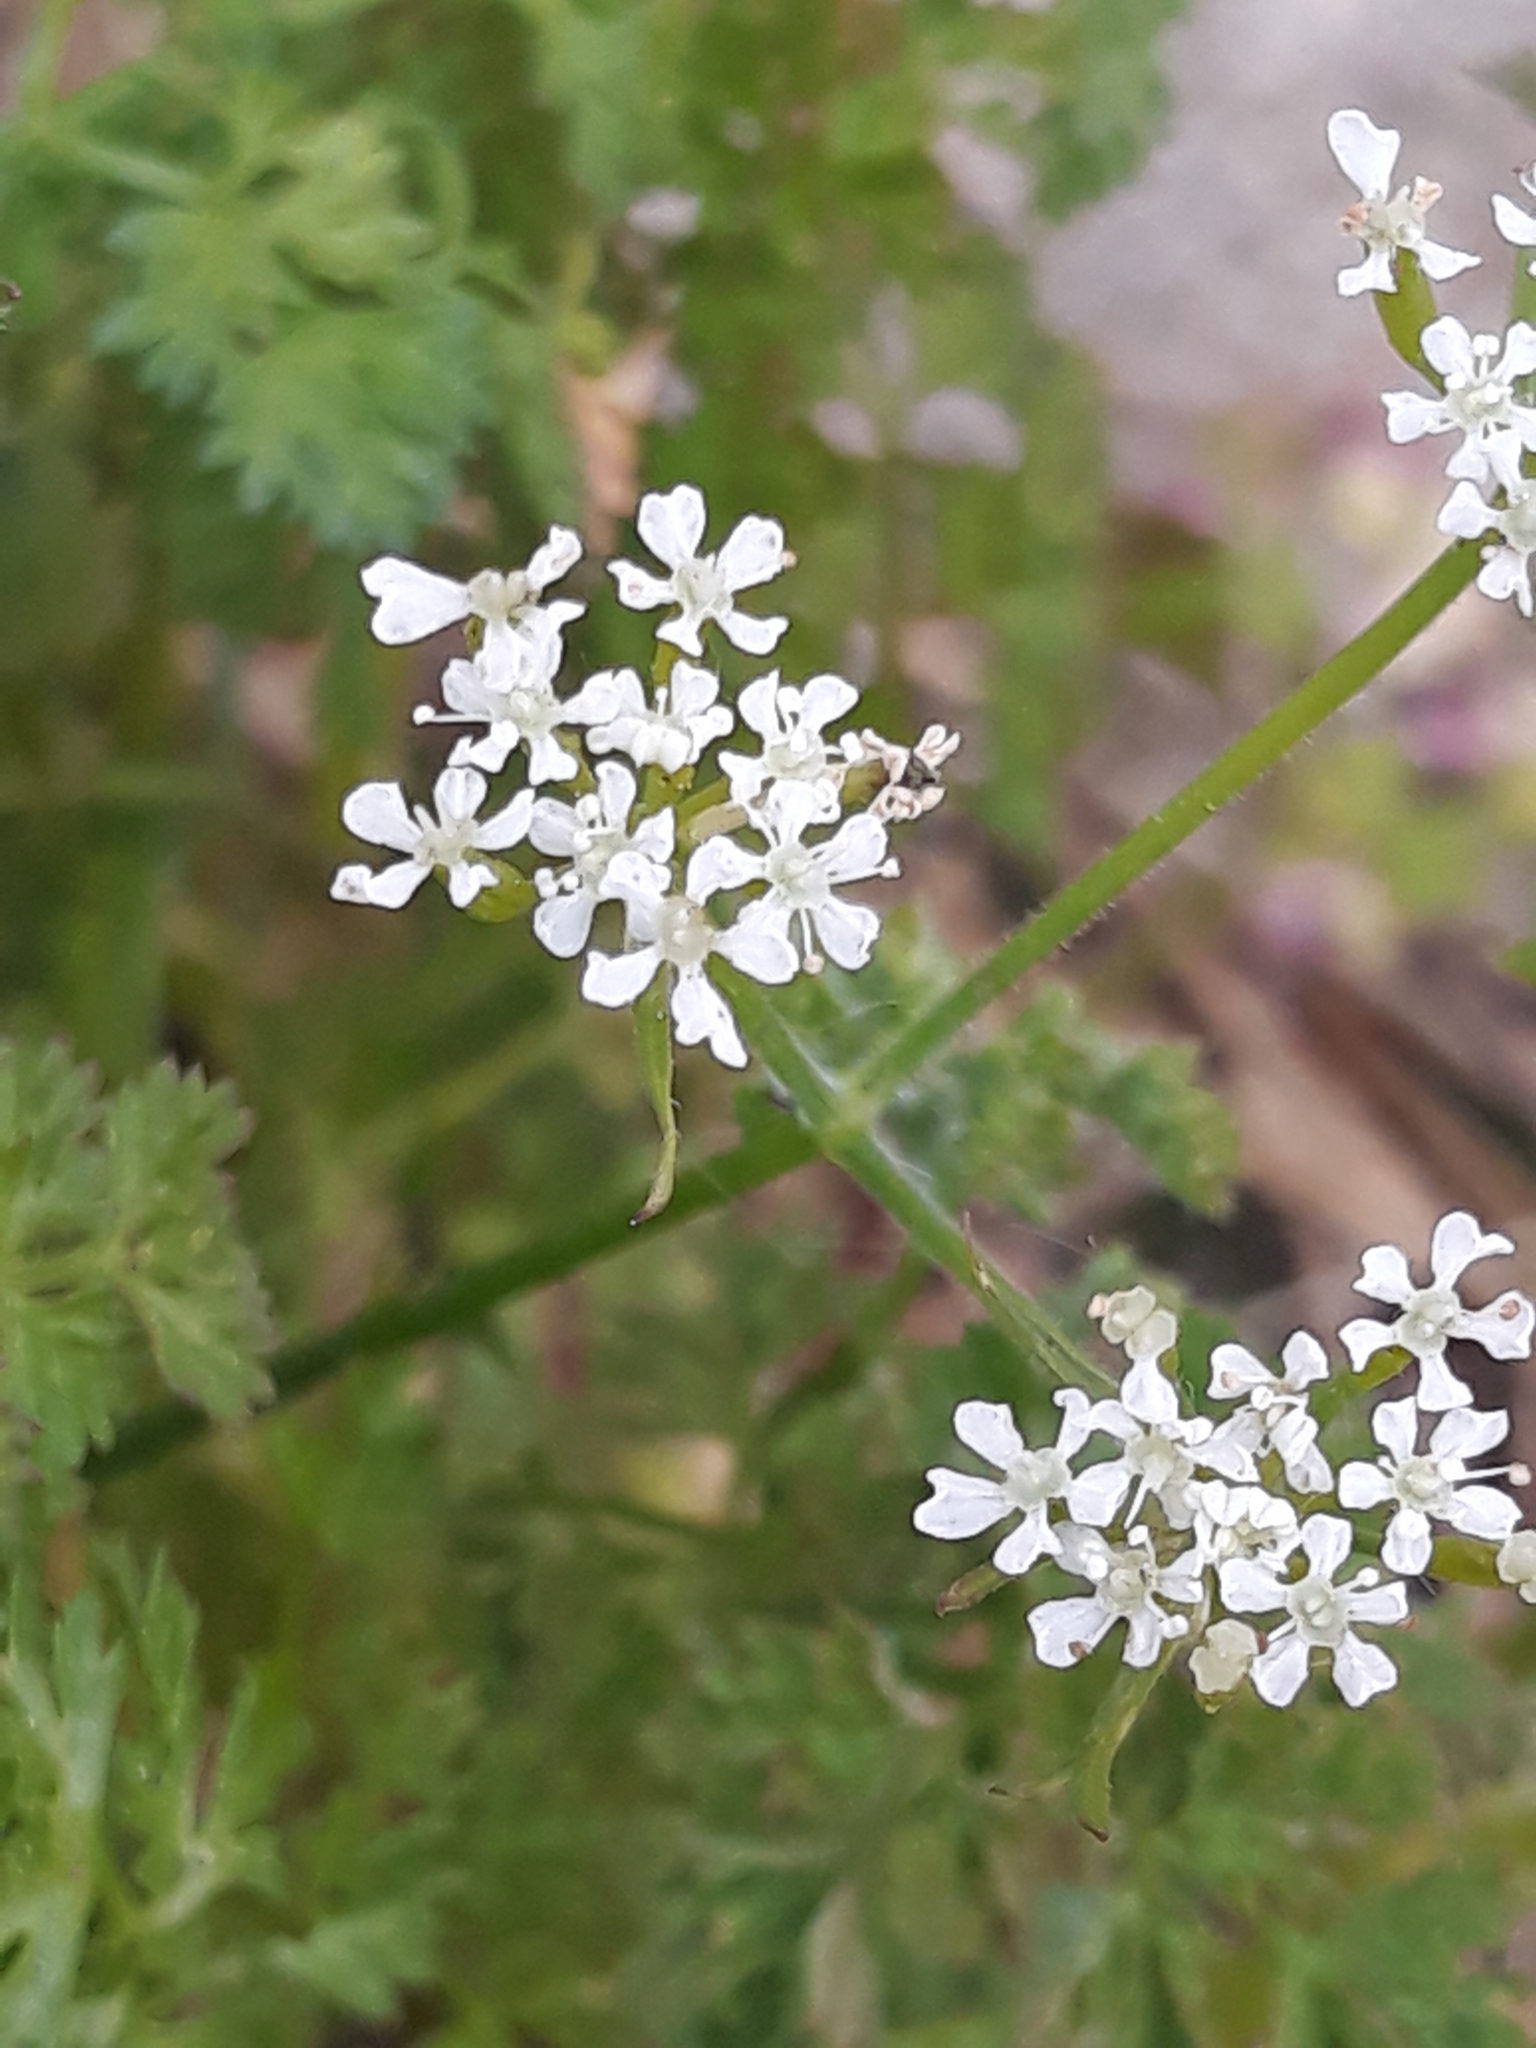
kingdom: Plantae
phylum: Tracheophyta
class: Magnoliopsida
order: Apiales
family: Apiaceae
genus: Scandix
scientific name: Scandix pecten-veneris
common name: Shepherd's-needle
